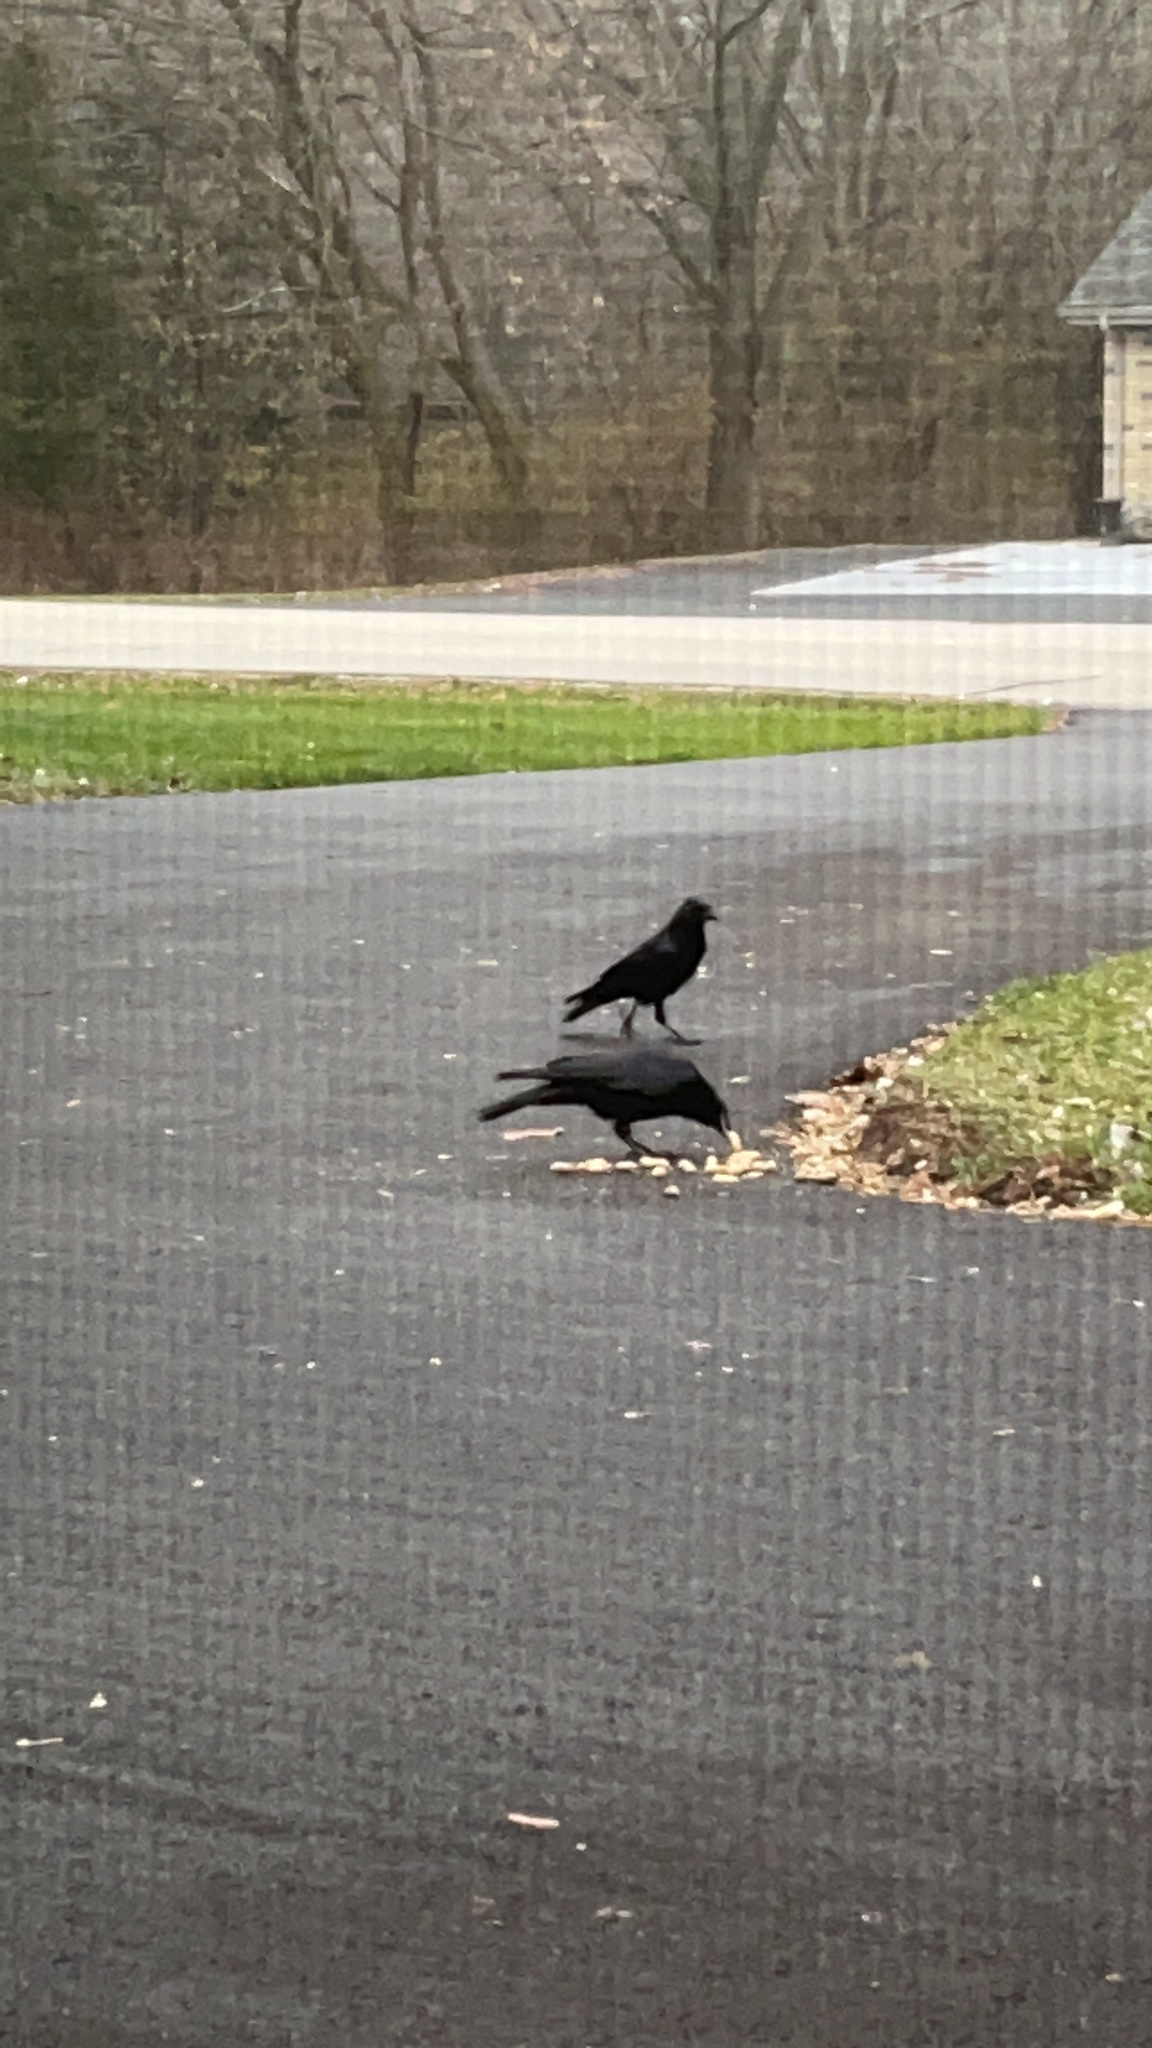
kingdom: Animalia
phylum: Chordata
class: Aves
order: Passeriformes
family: Corvidae
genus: Corvus
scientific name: Corvus brachyrhynchos
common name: American crow
